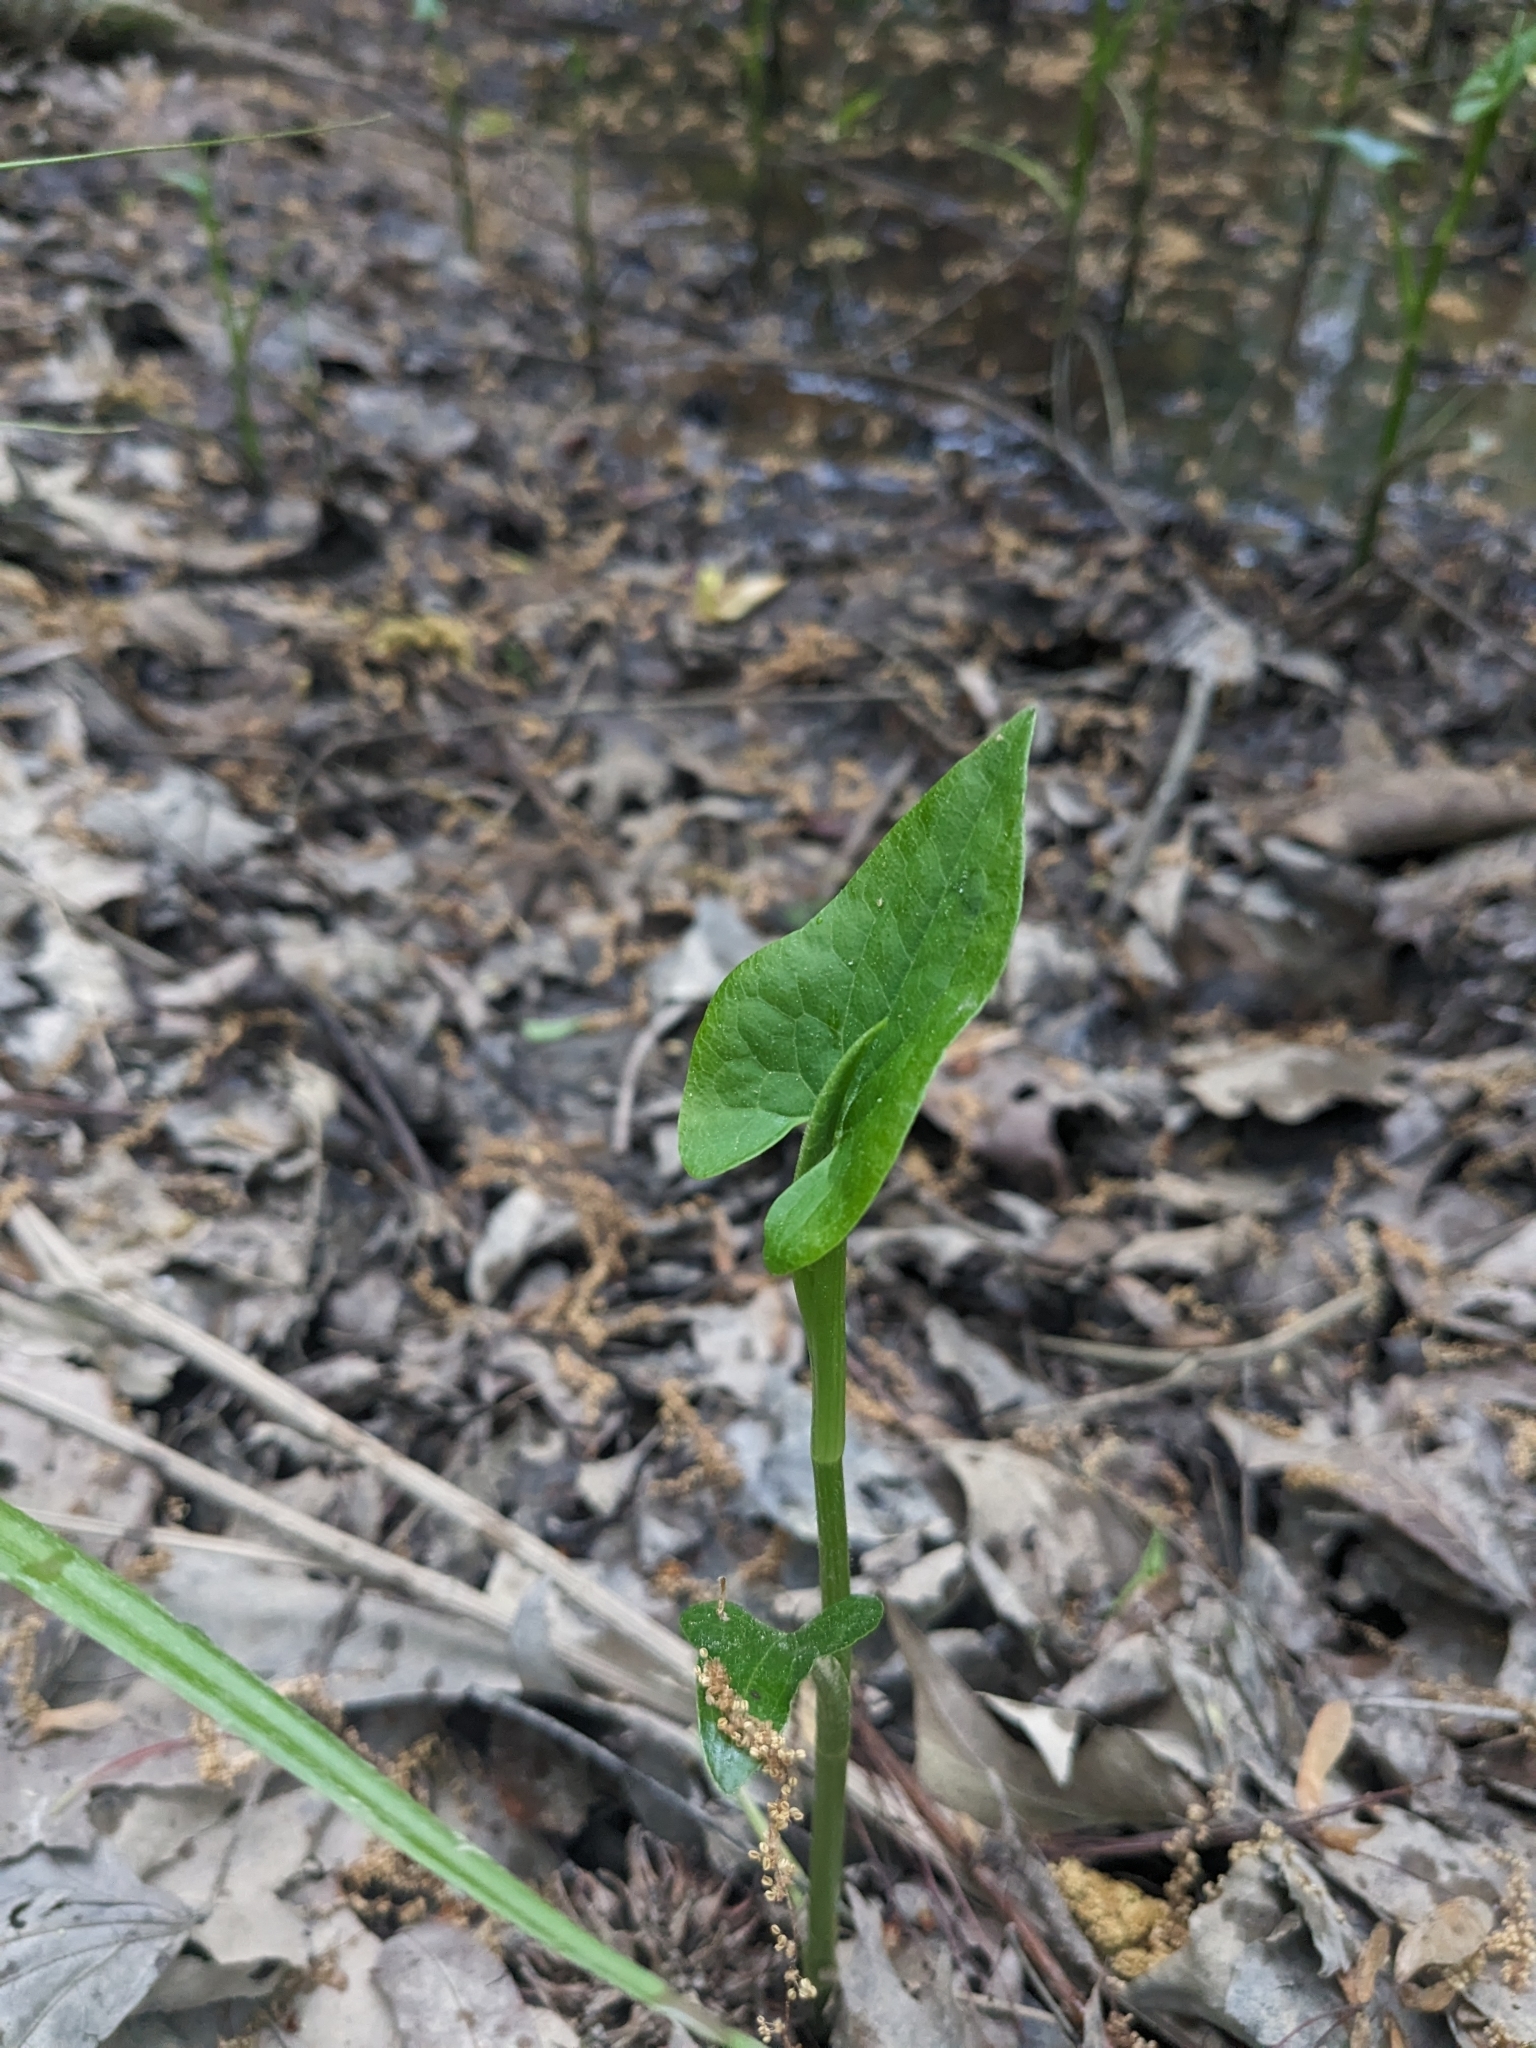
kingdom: Plantae
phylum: Tracheophyta
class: Magnoliopsida
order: Piperales
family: Saururaceae
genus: Saururus
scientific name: Saururus cernuus
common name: Lizard's-tail
